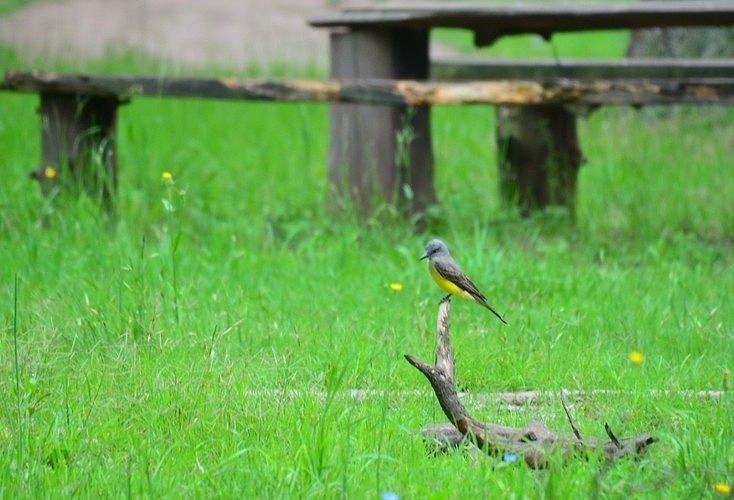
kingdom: Animalia
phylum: Chordata
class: Aves
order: Passeriformes
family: Tyrannidae
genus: Tyrannus
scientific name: Tyrannus melancholicus
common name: Tropical kingbird
